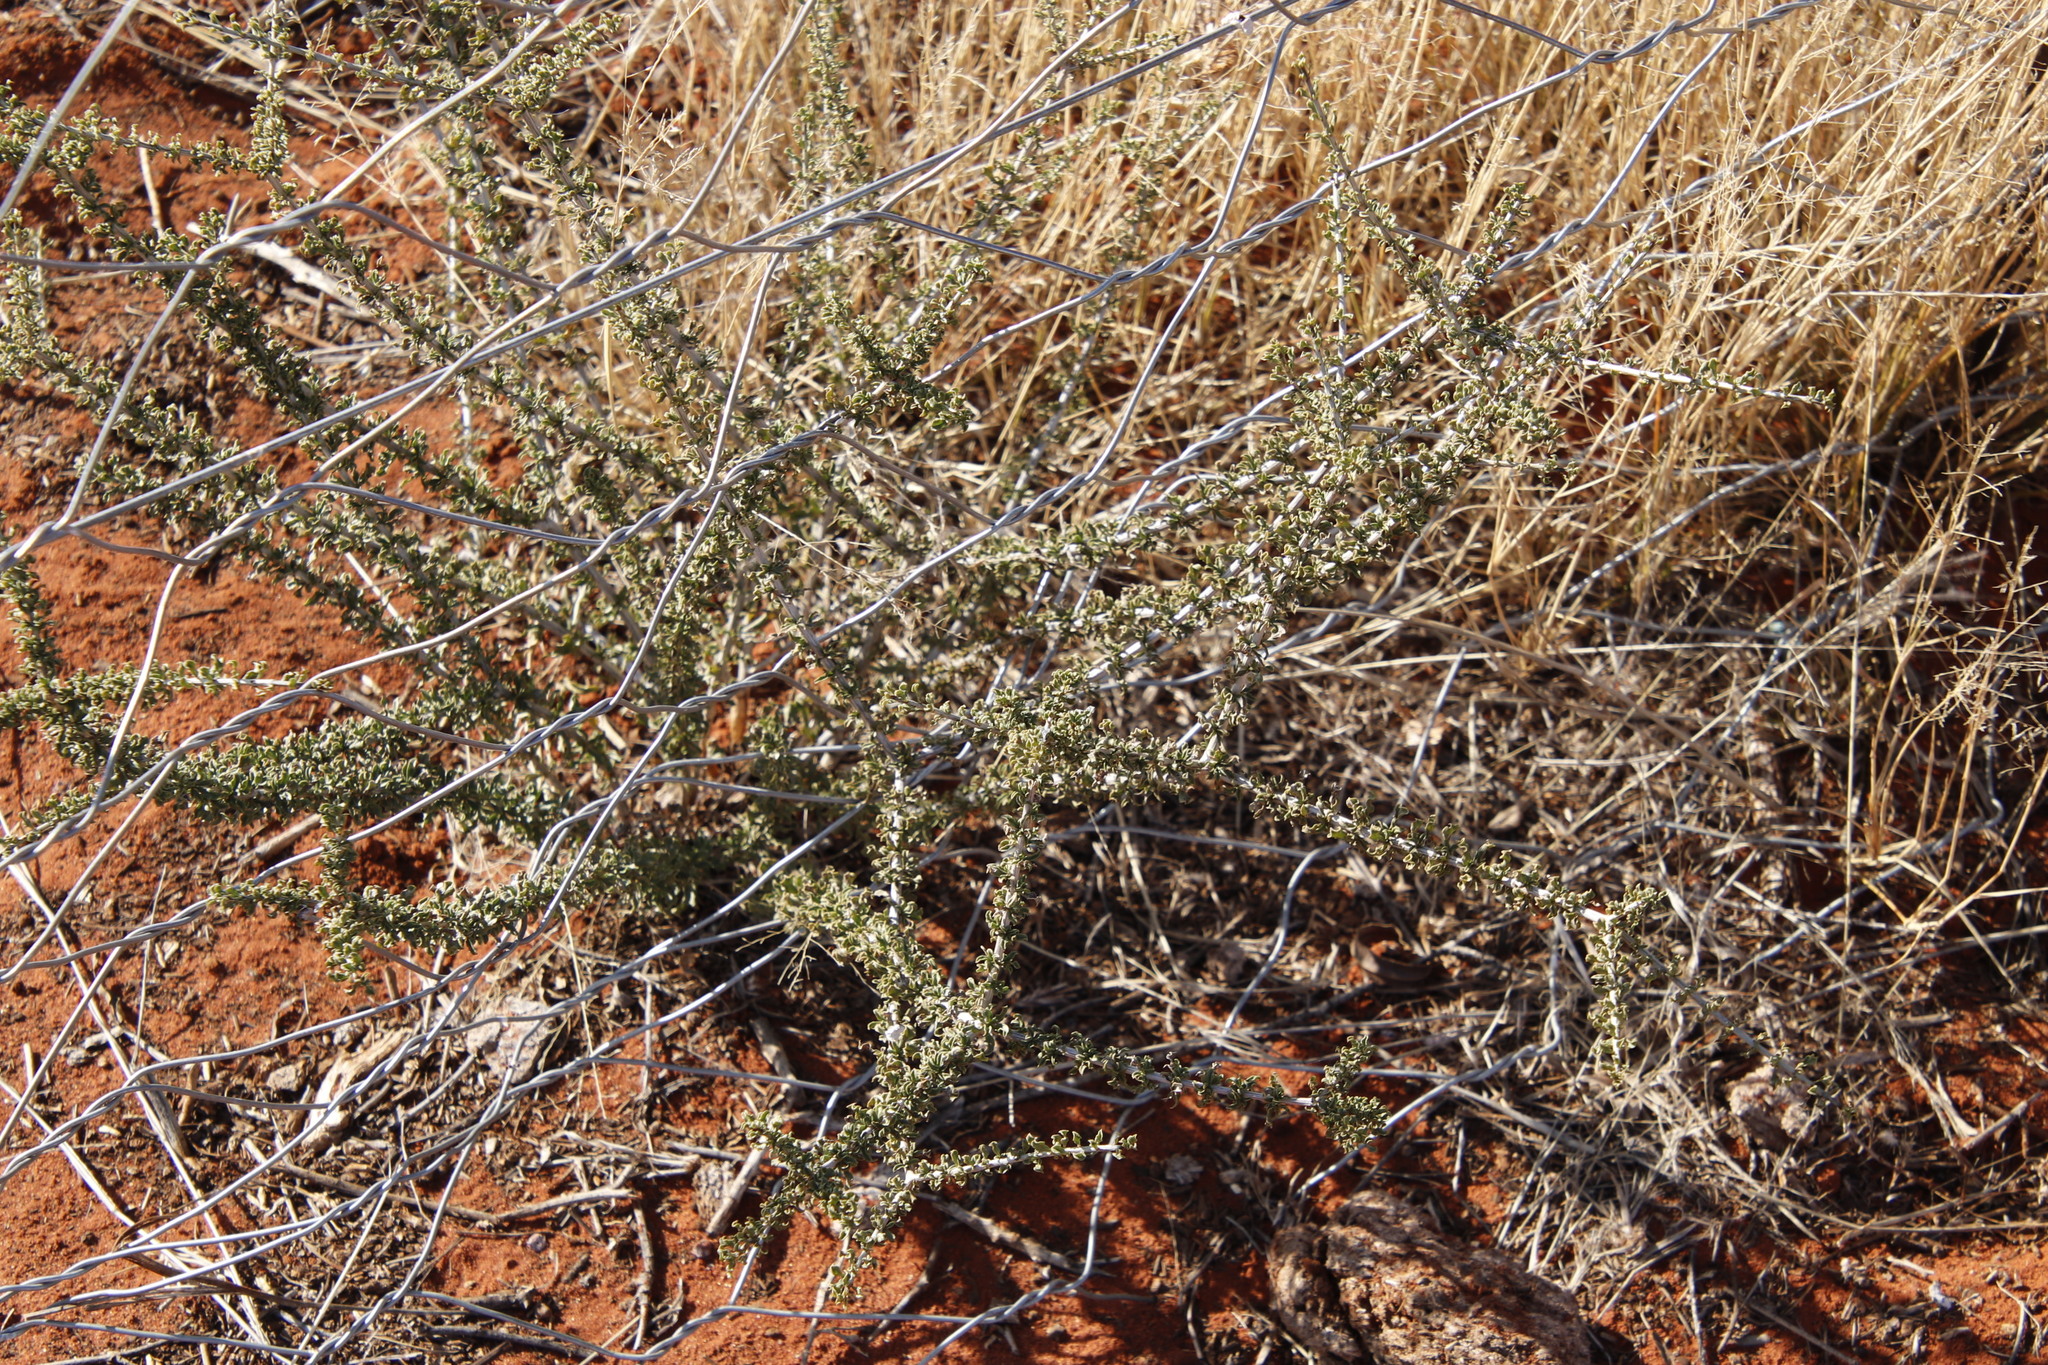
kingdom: Plantae
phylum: Tracheophyta
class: Magnoliopsida
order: Lamiales
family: Bignoniaceae
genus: Rhigozum
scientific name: Rhigozum trichotomum
